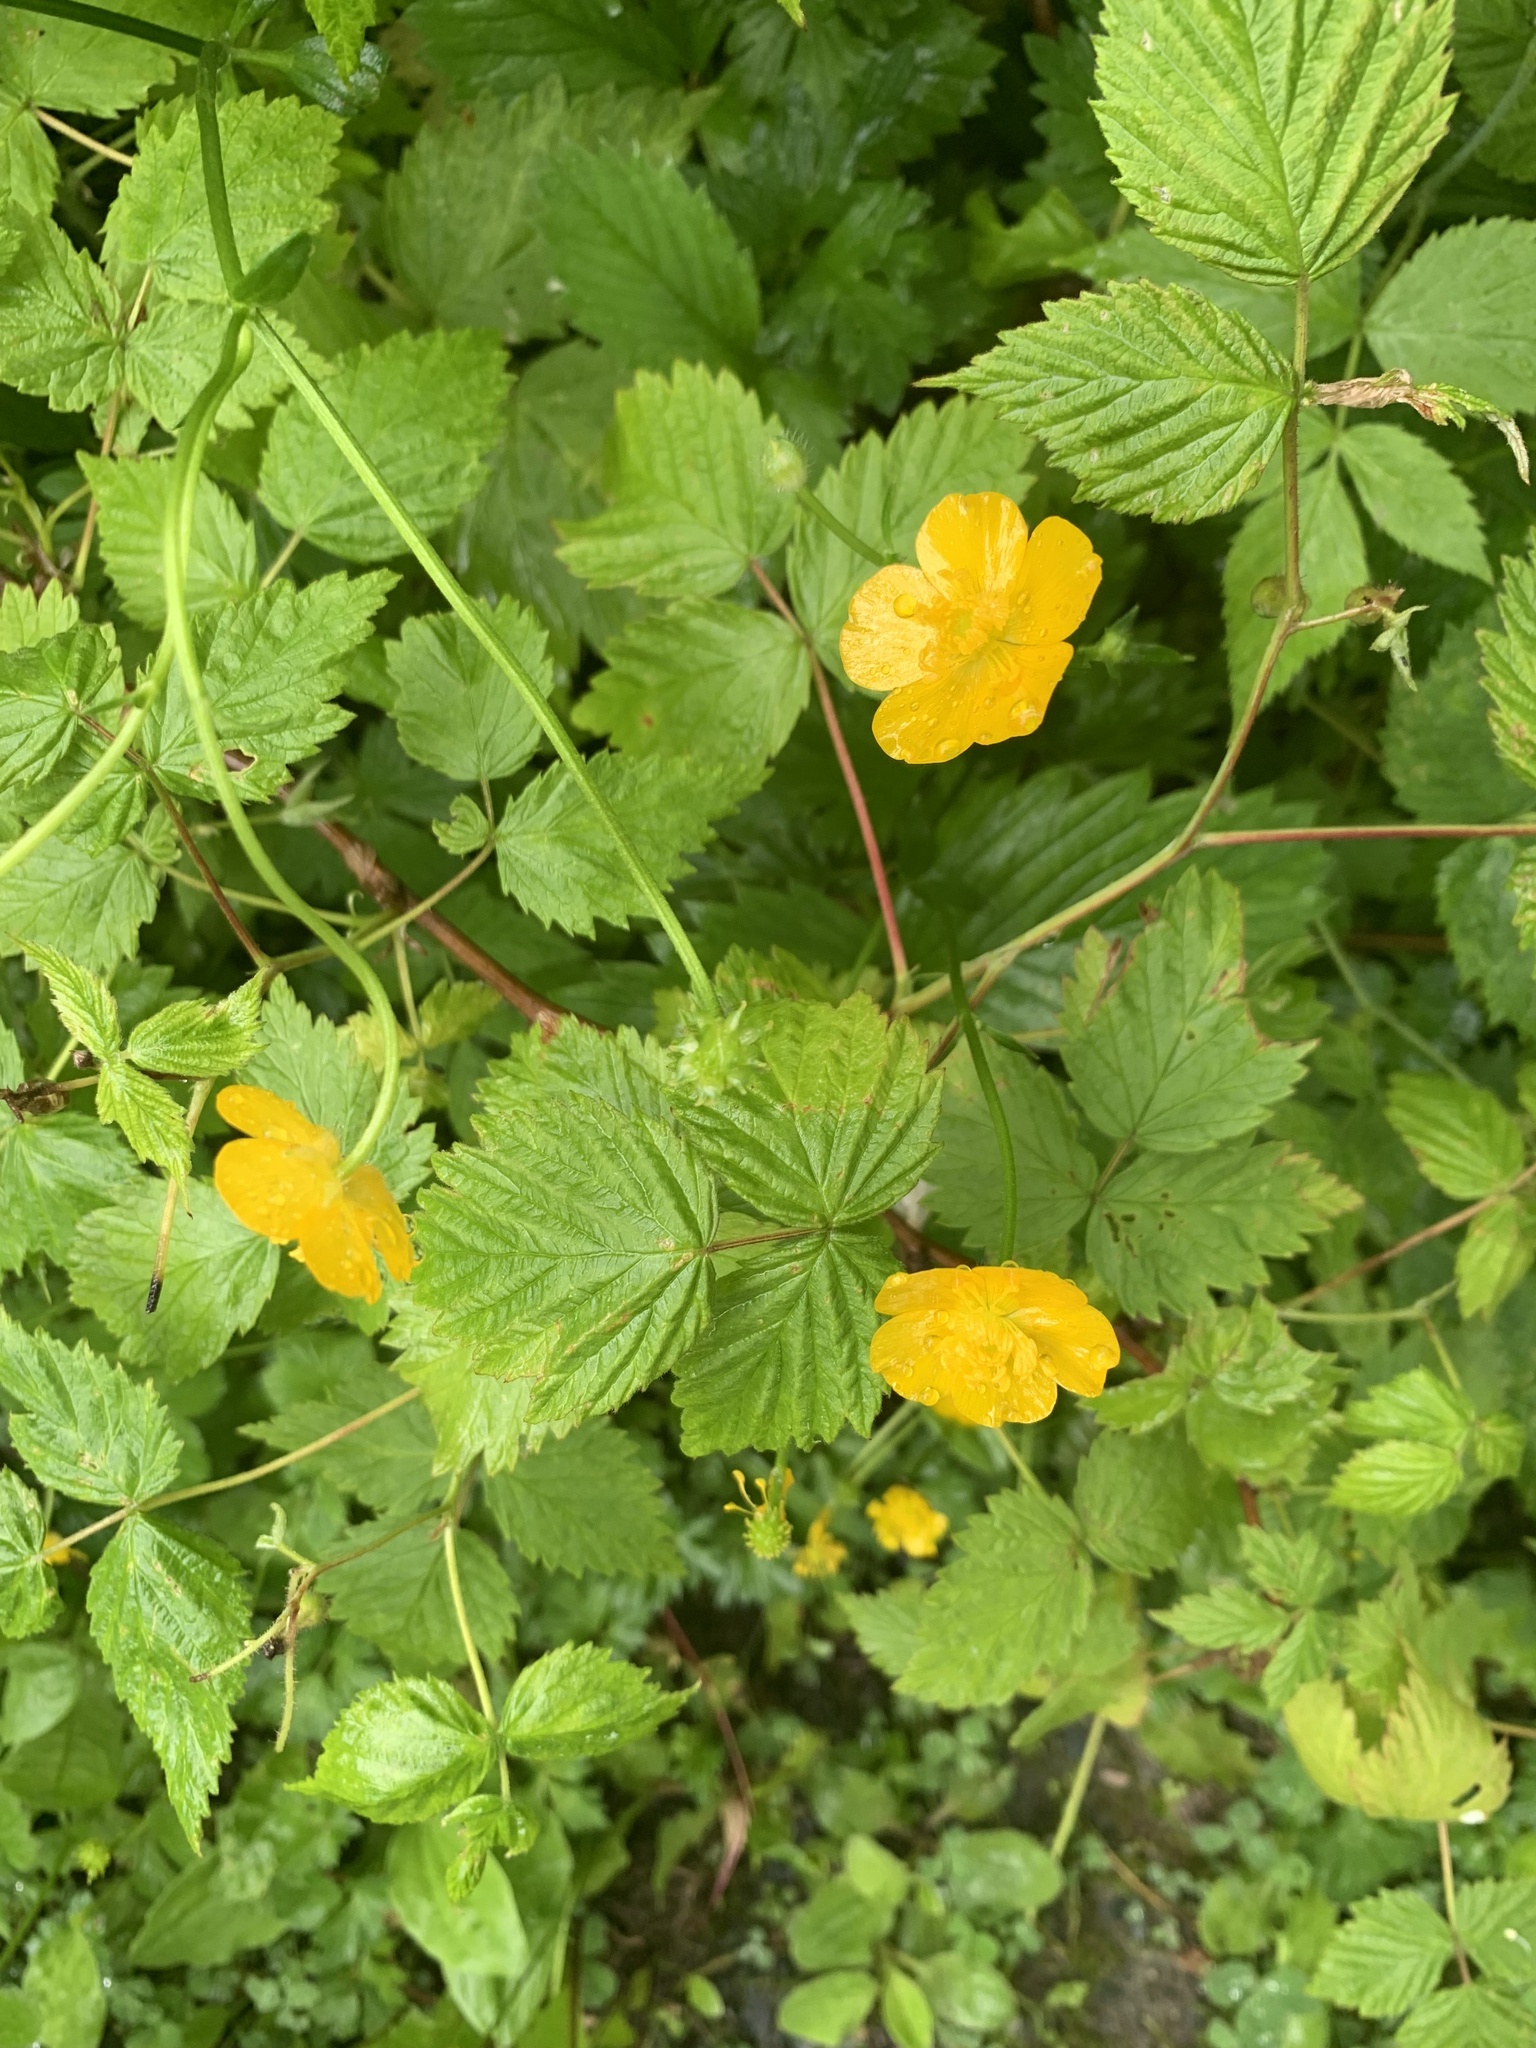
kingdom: Plantae
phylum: Tracheophyta
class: Magnoliopsida
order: Ranunculales
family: Ranunculaceae
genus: Ranunculus
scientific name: Ranunculus acris
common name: Meadow buttercup
